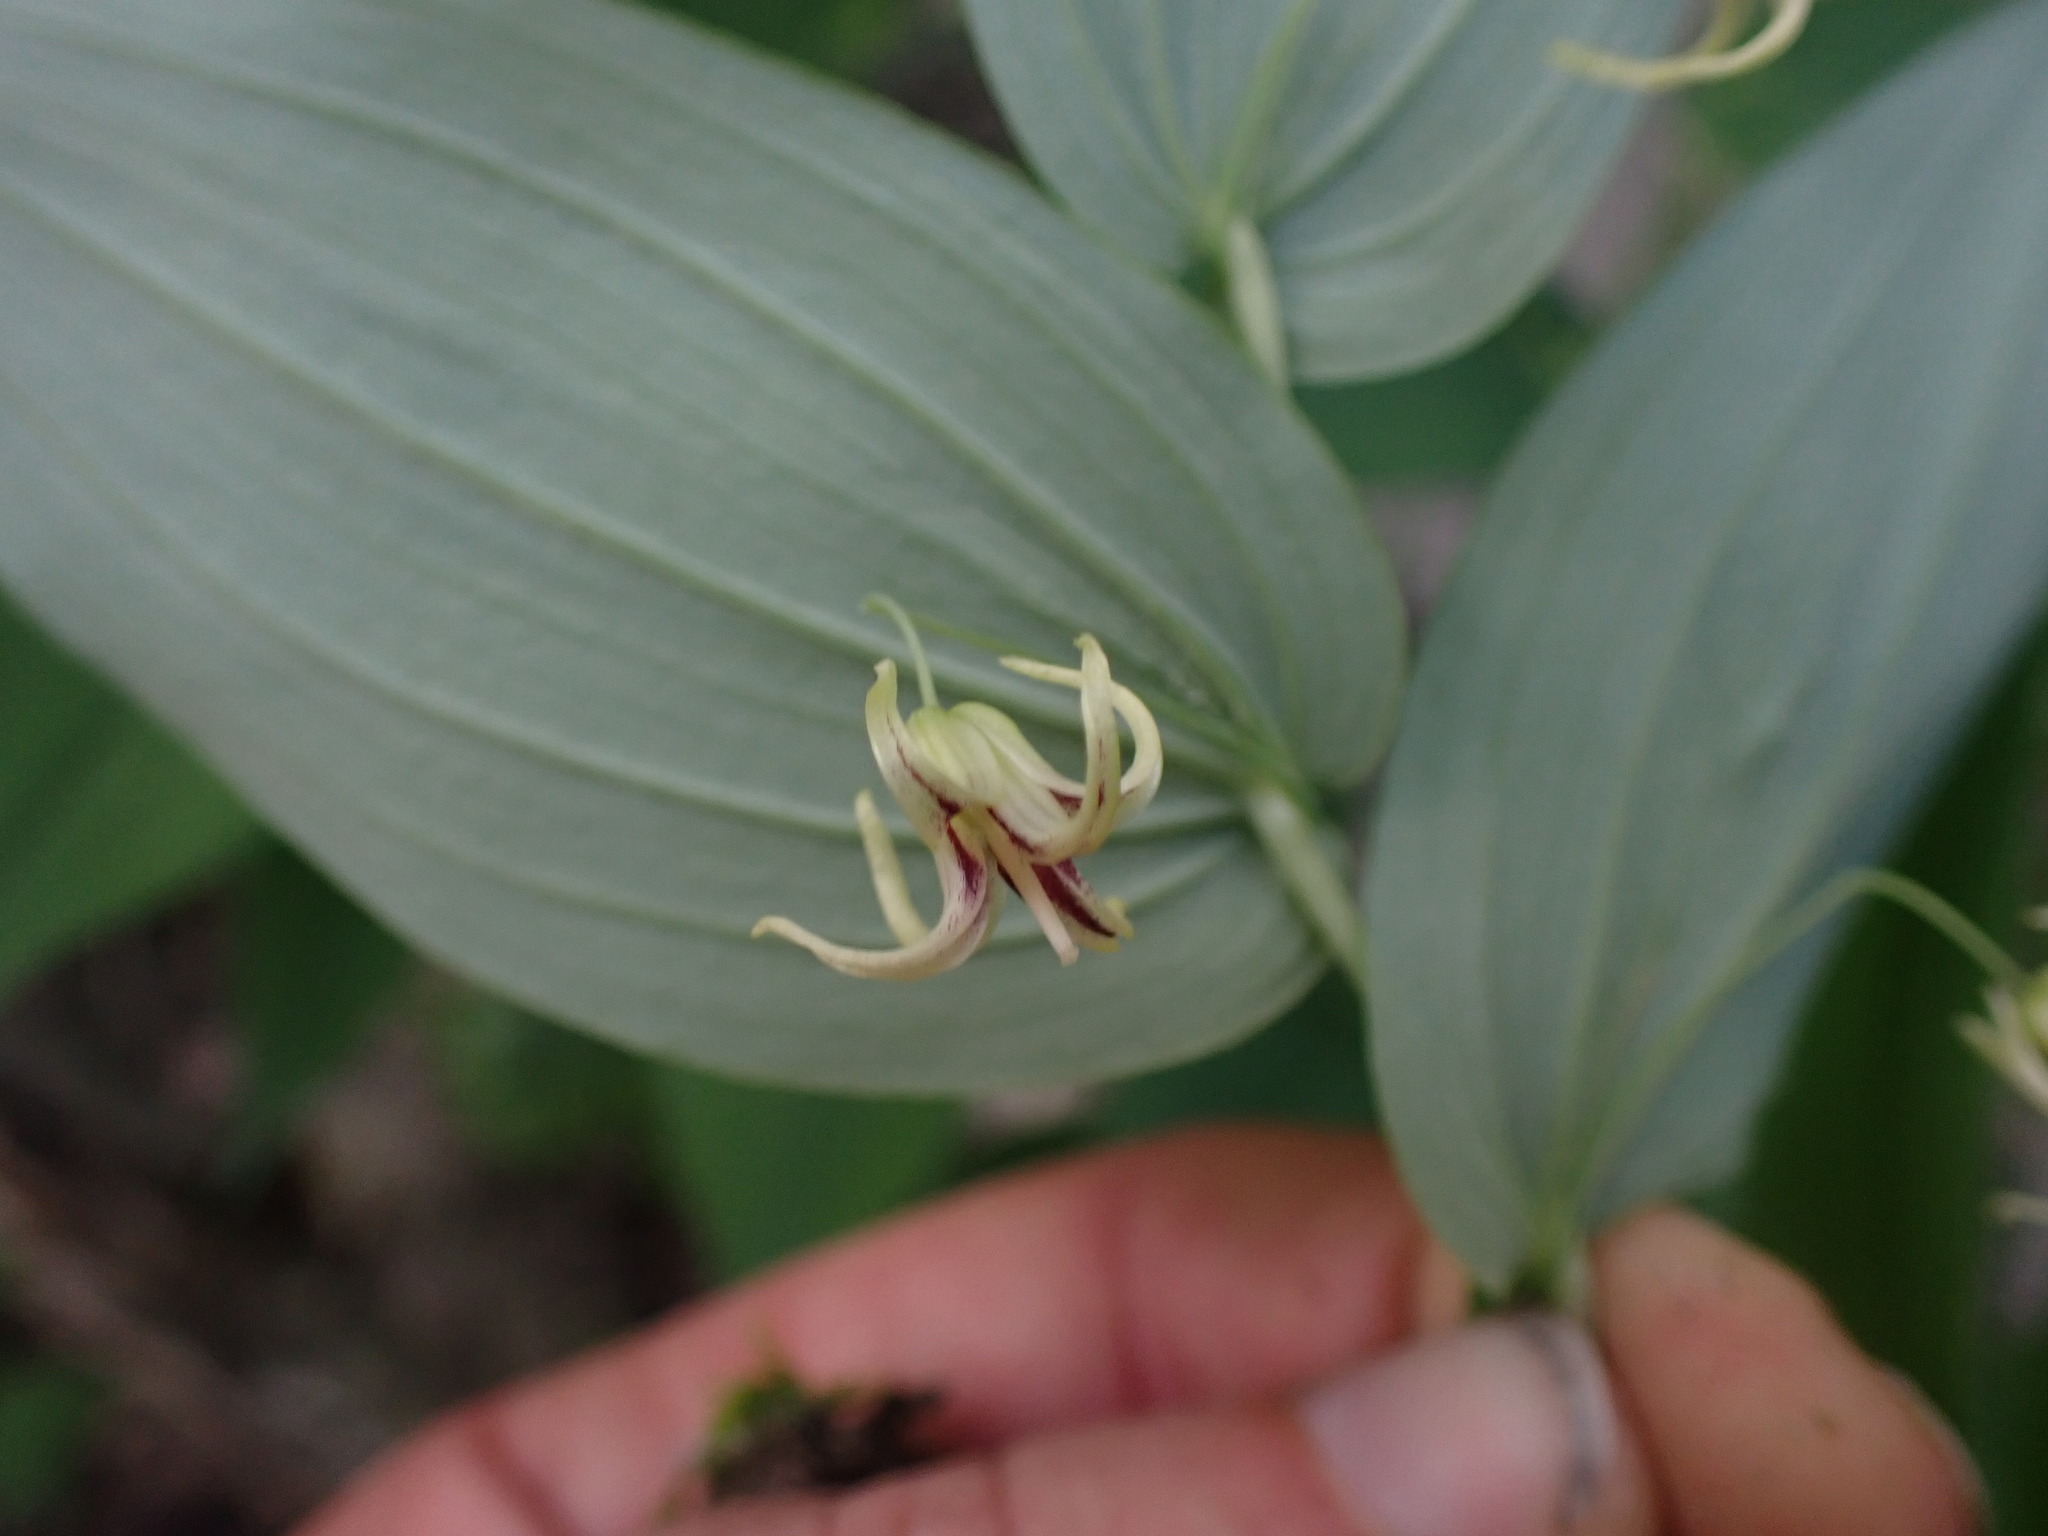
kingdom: Plantae
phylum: Tracheophyta
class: Liliopsida
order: Liliales
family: Liliaceae
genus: Streptopus
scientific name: Streptopus amplexifolius
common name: Clasp twisted stalk
